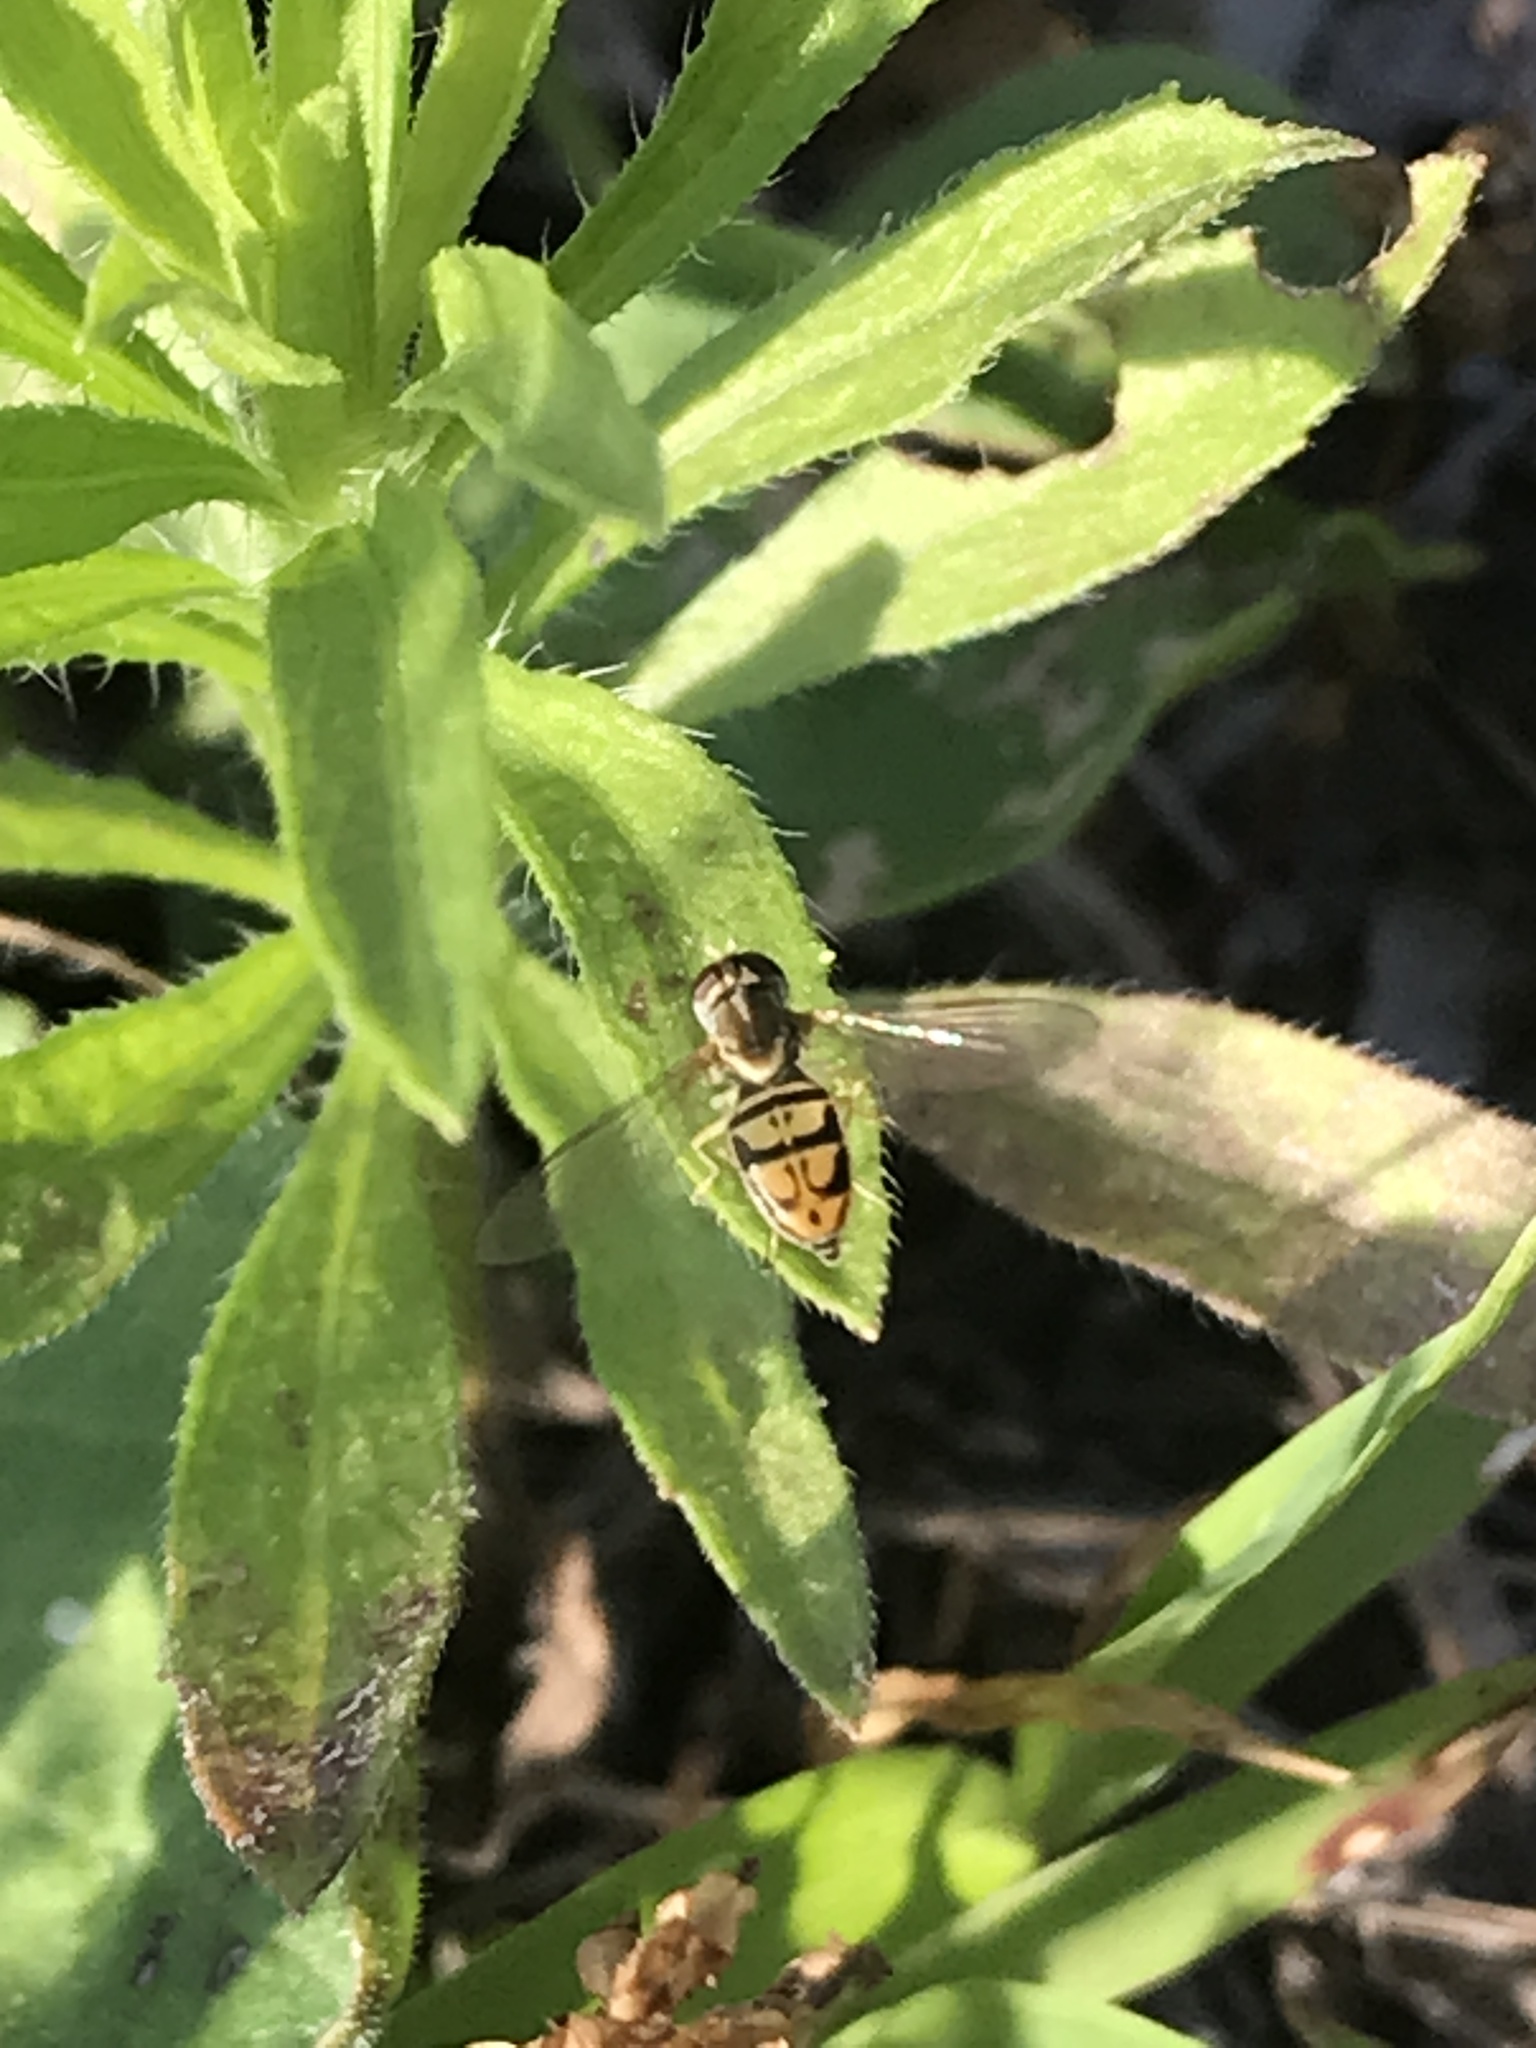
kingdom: Animalia
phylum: Arthropoda
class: Insecta
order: Diptera
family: Syrphidae
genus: Toxomerus
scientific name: Toxomerus marginatus
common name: Syrphid fly
